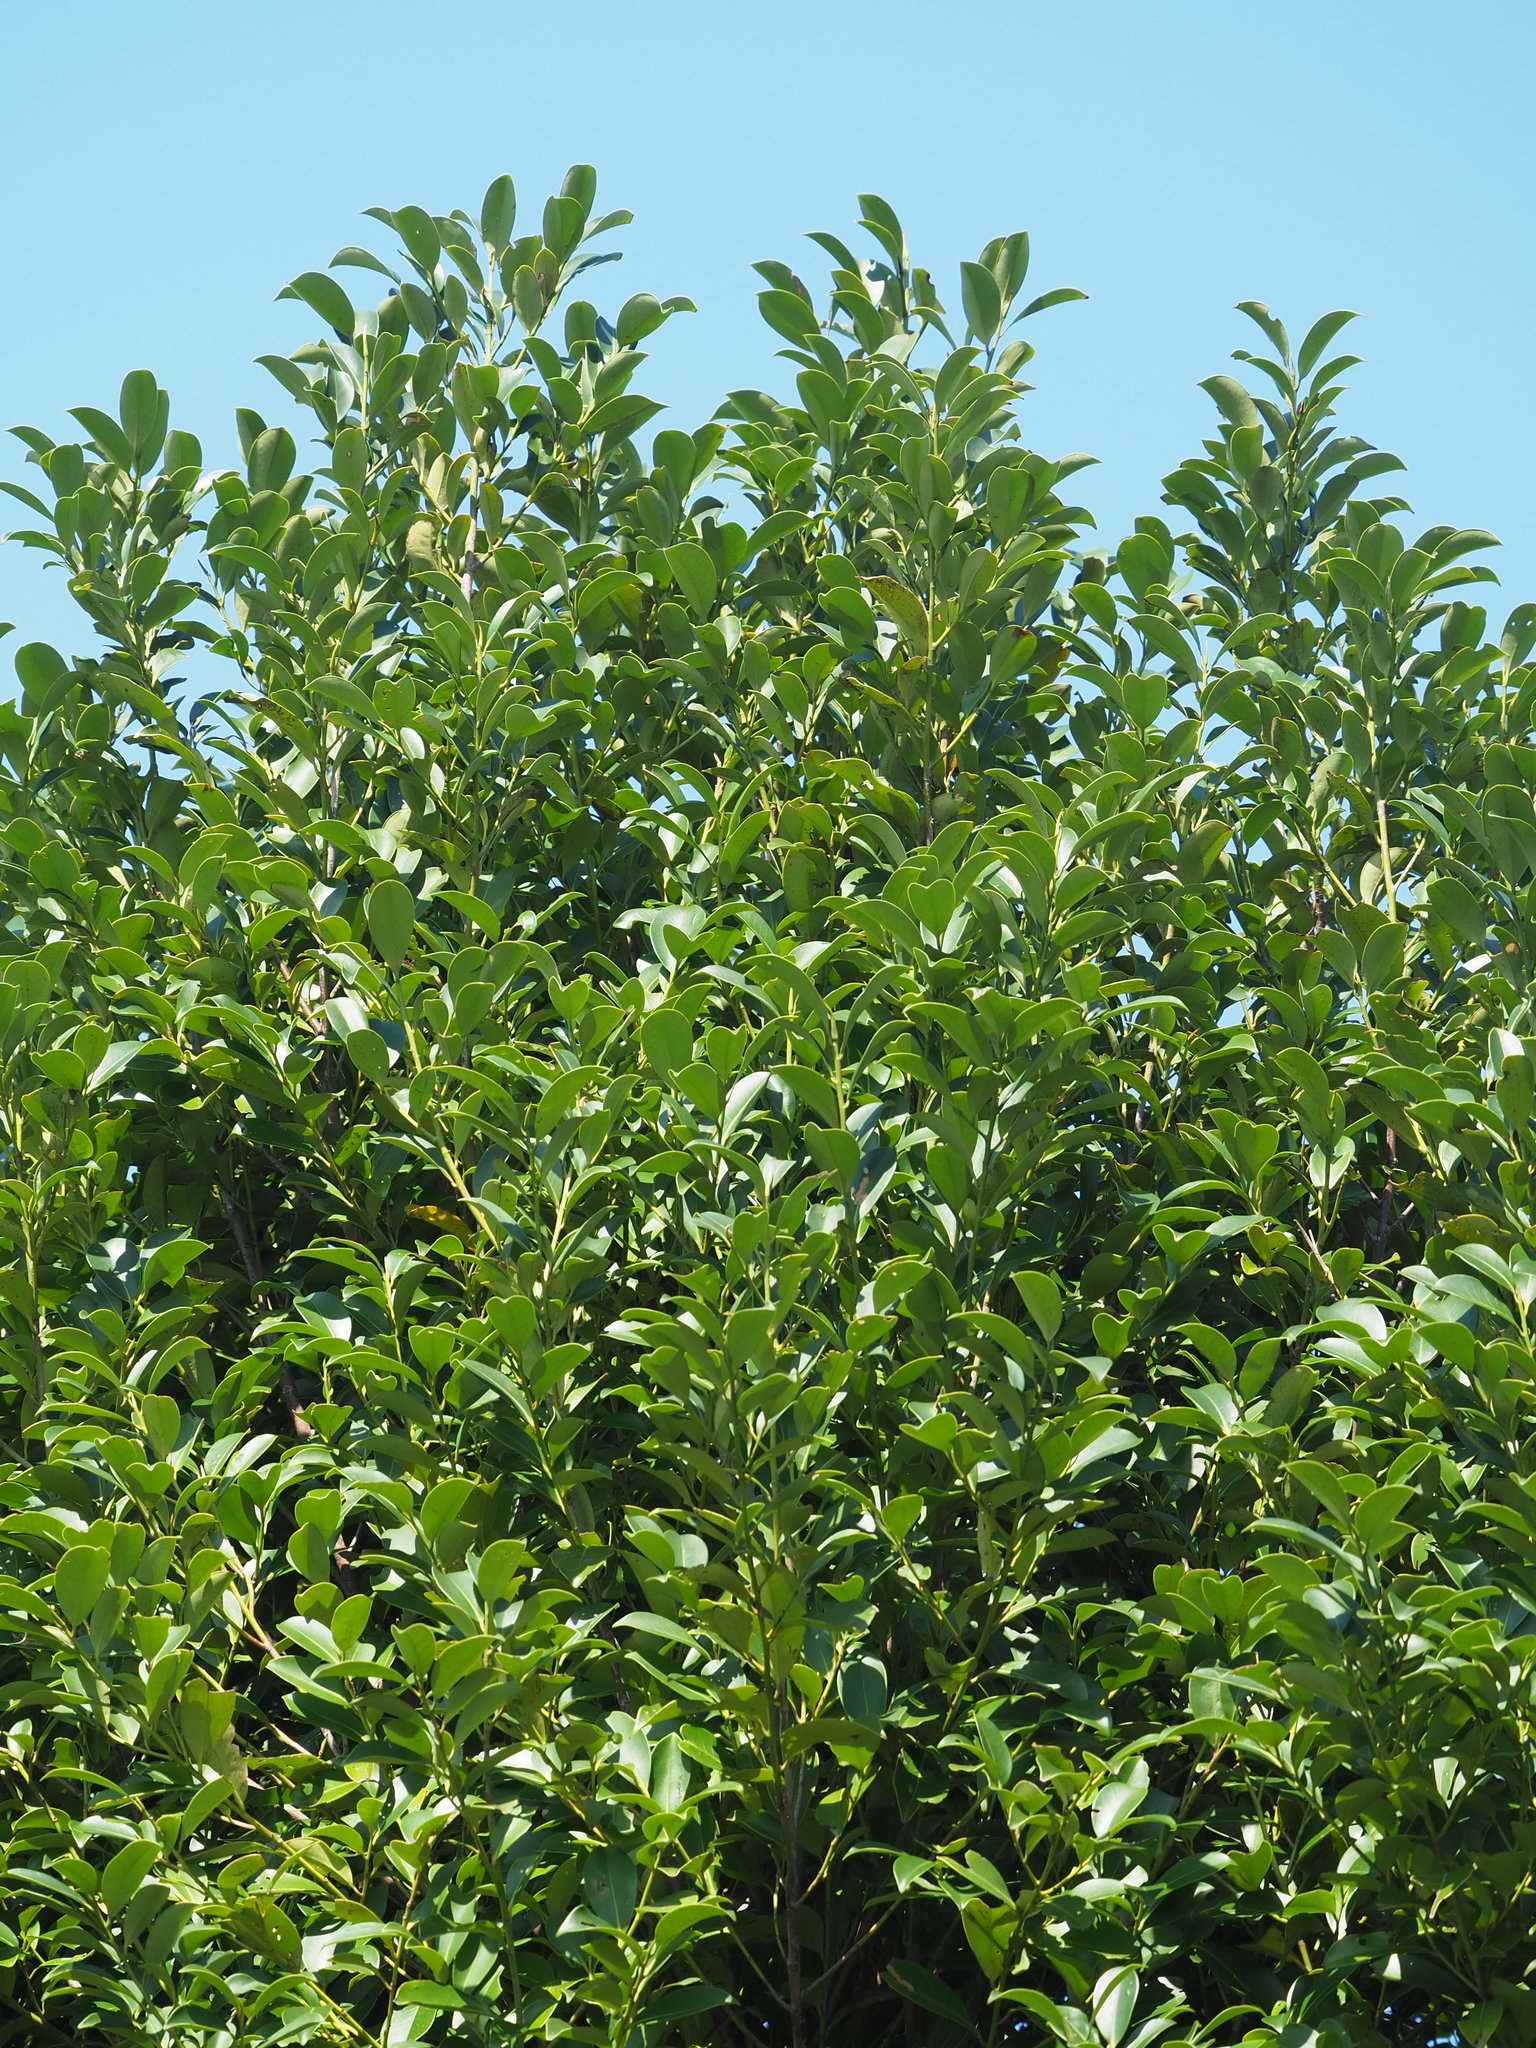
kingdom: Plantae
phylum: Tracheophyta
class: Magnoliopsida
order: Ericales
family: Pentaphylacaceae
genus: Cleyera
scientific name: Cleyera japonica
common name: Sakaki
